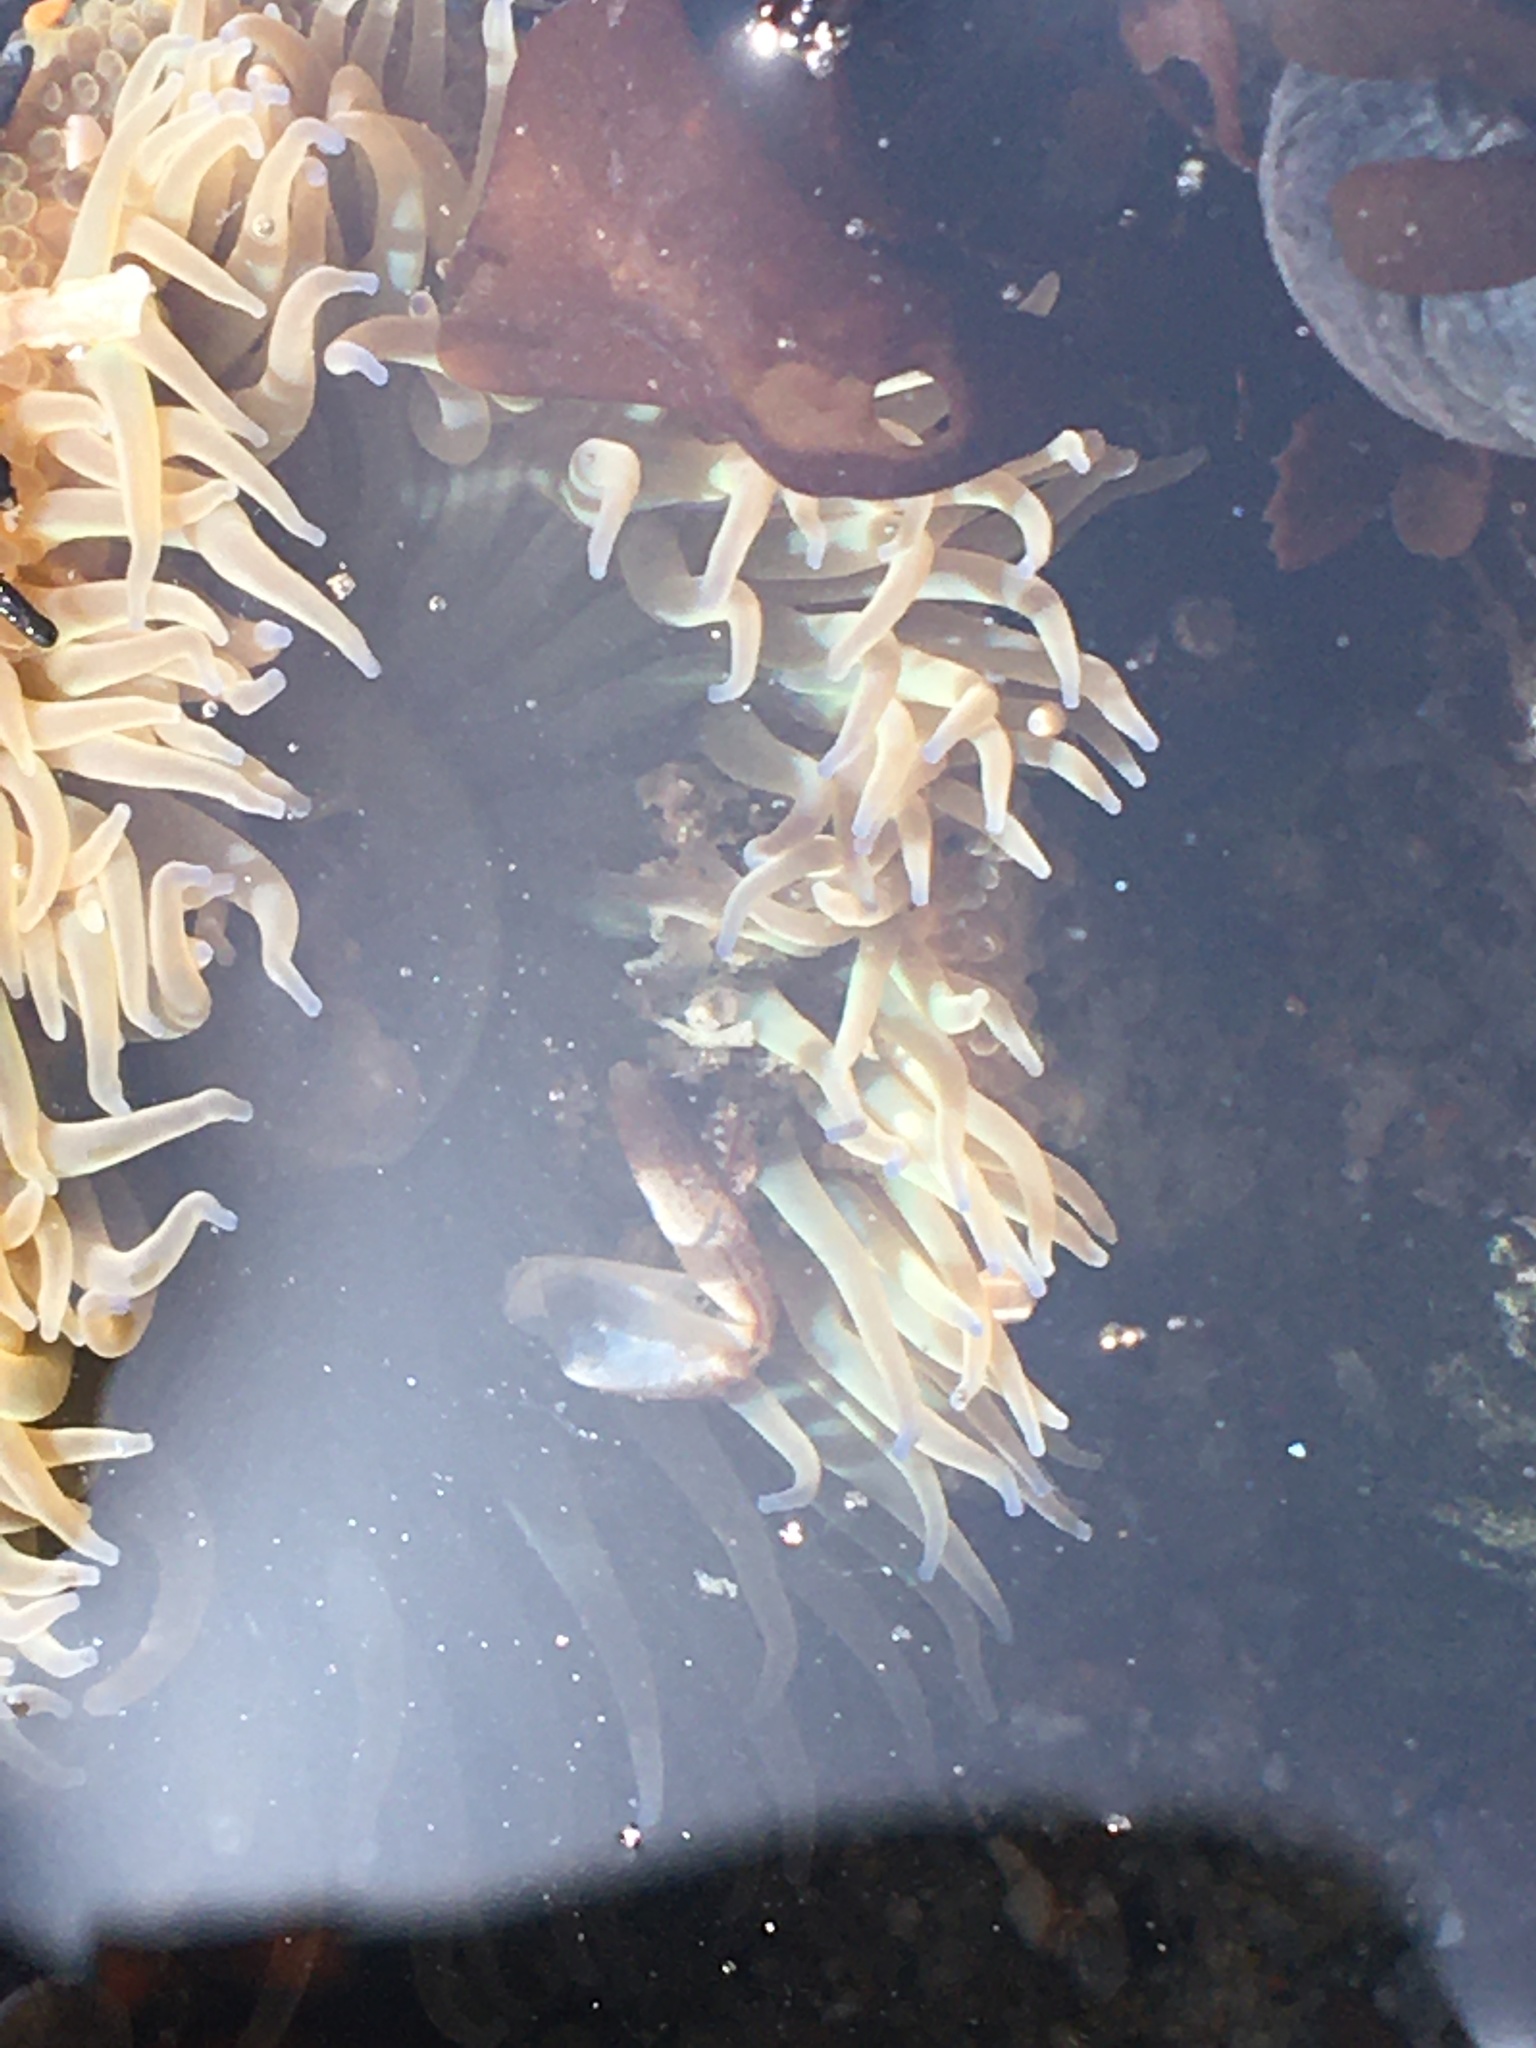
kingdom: Animalia
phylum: Cnidaria
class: Anthozoa
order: Actiniaria
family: Actiniidae
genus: Anthopleura
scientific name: Anthopleura sola
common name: Sun anemone
